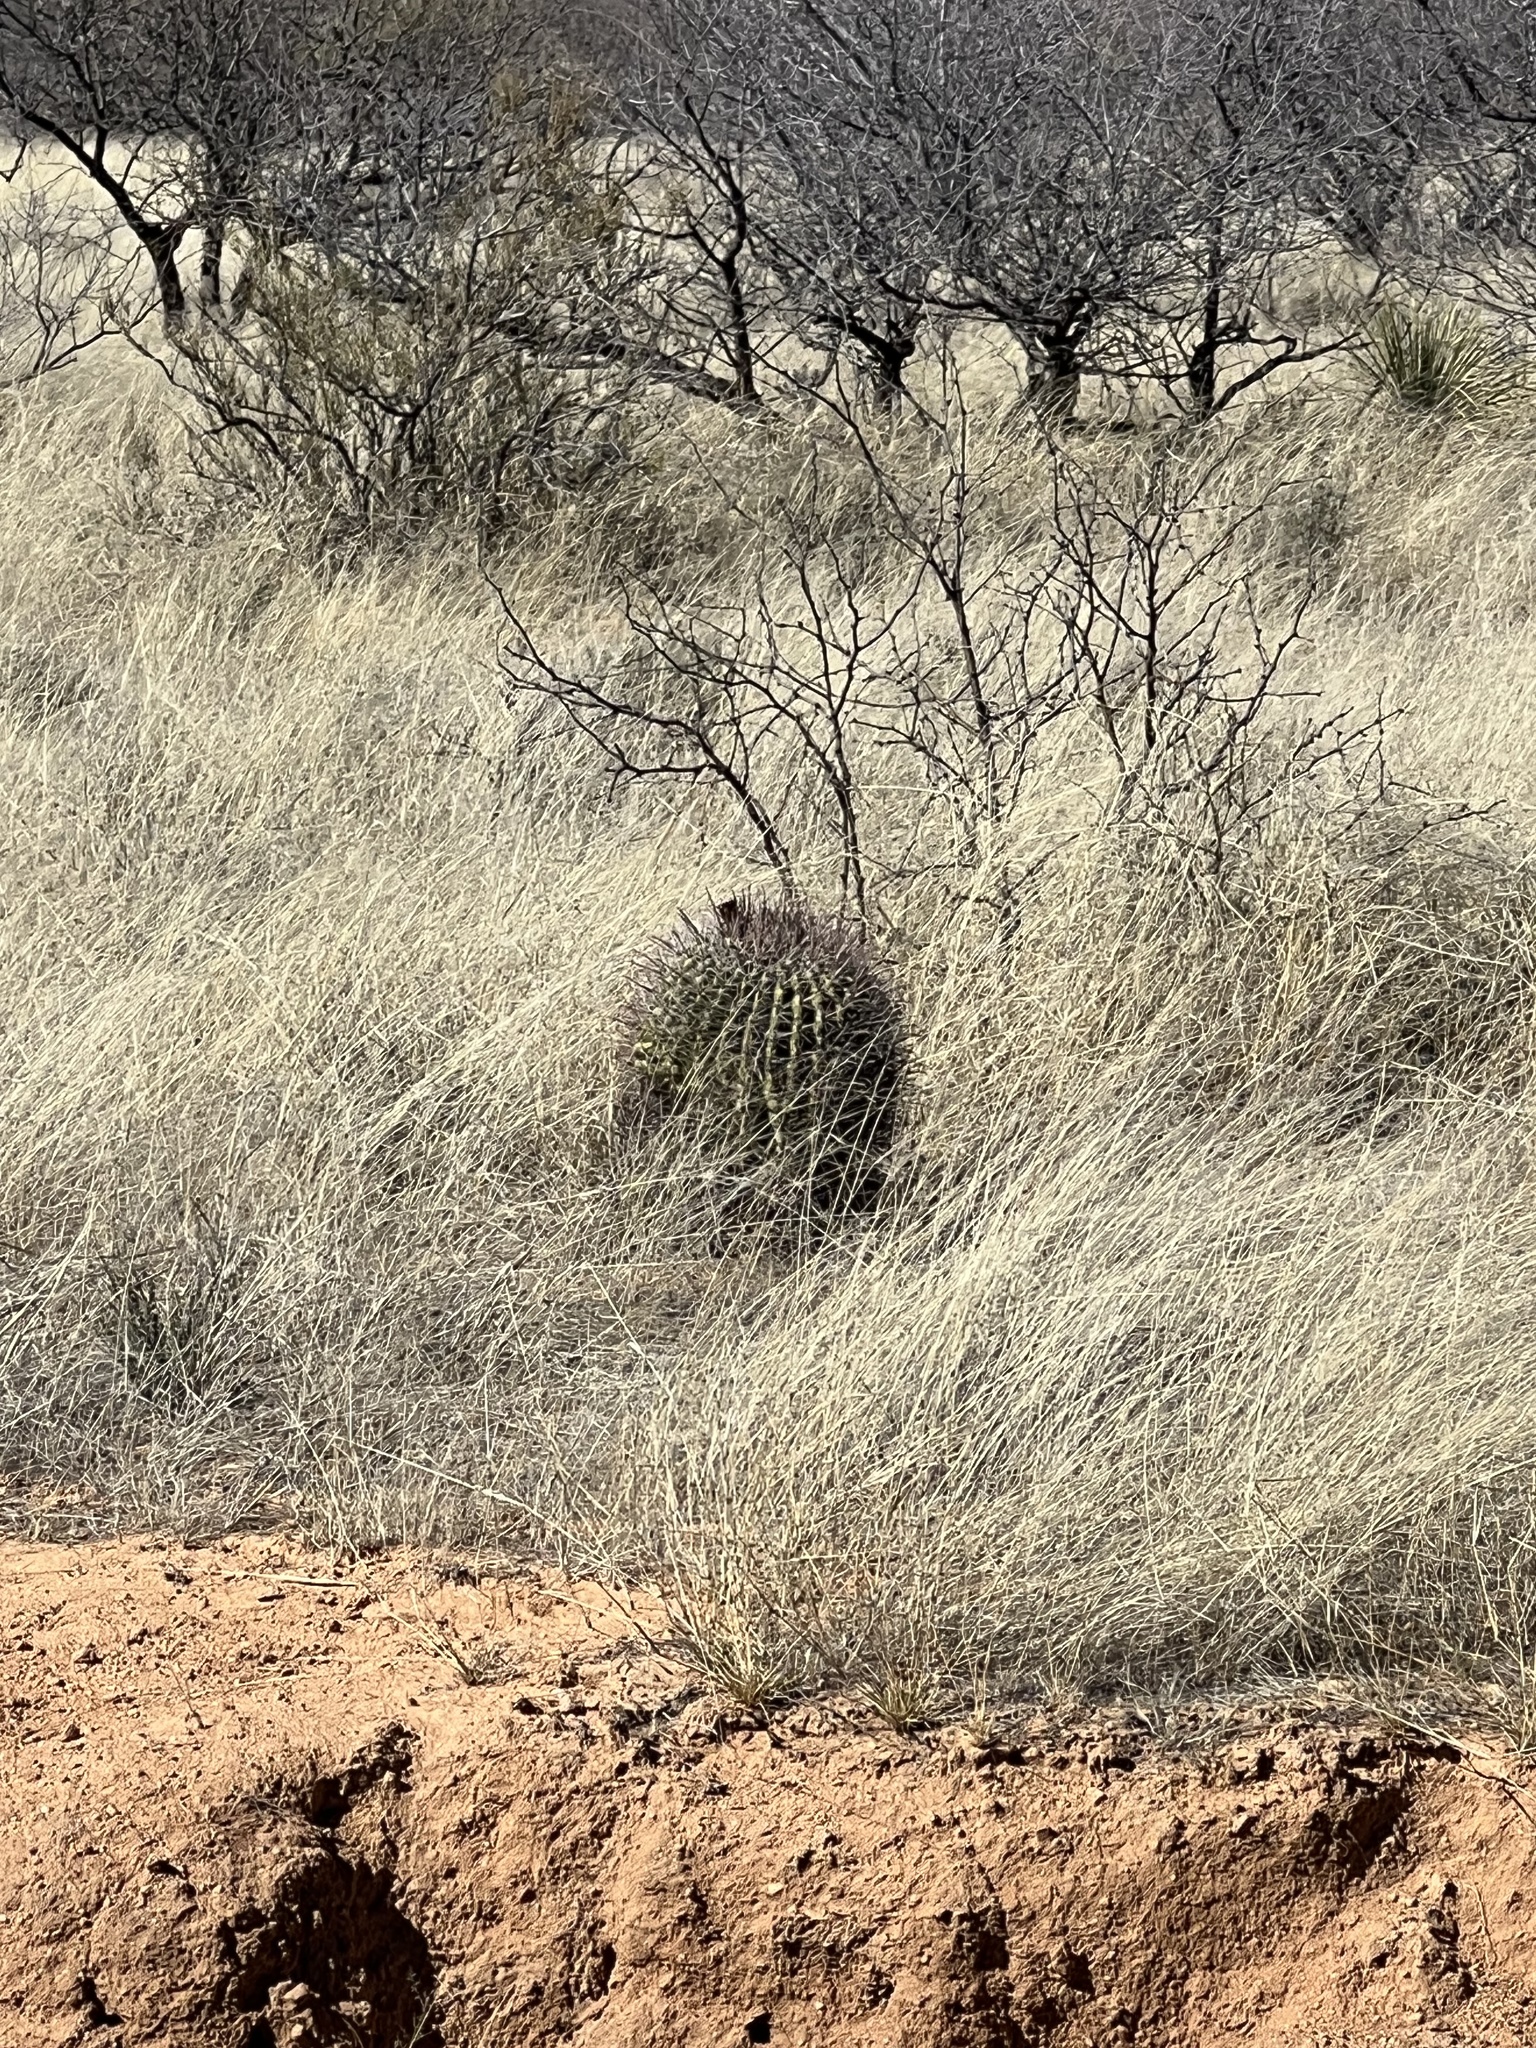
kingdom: Plantae
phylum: Tracheophyta
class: Magnoliopsida
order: Caryophyllales
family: Cactaceae
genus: Ferocactus
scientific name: Ferocactus wislizeni
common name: Candy barrel cactus
